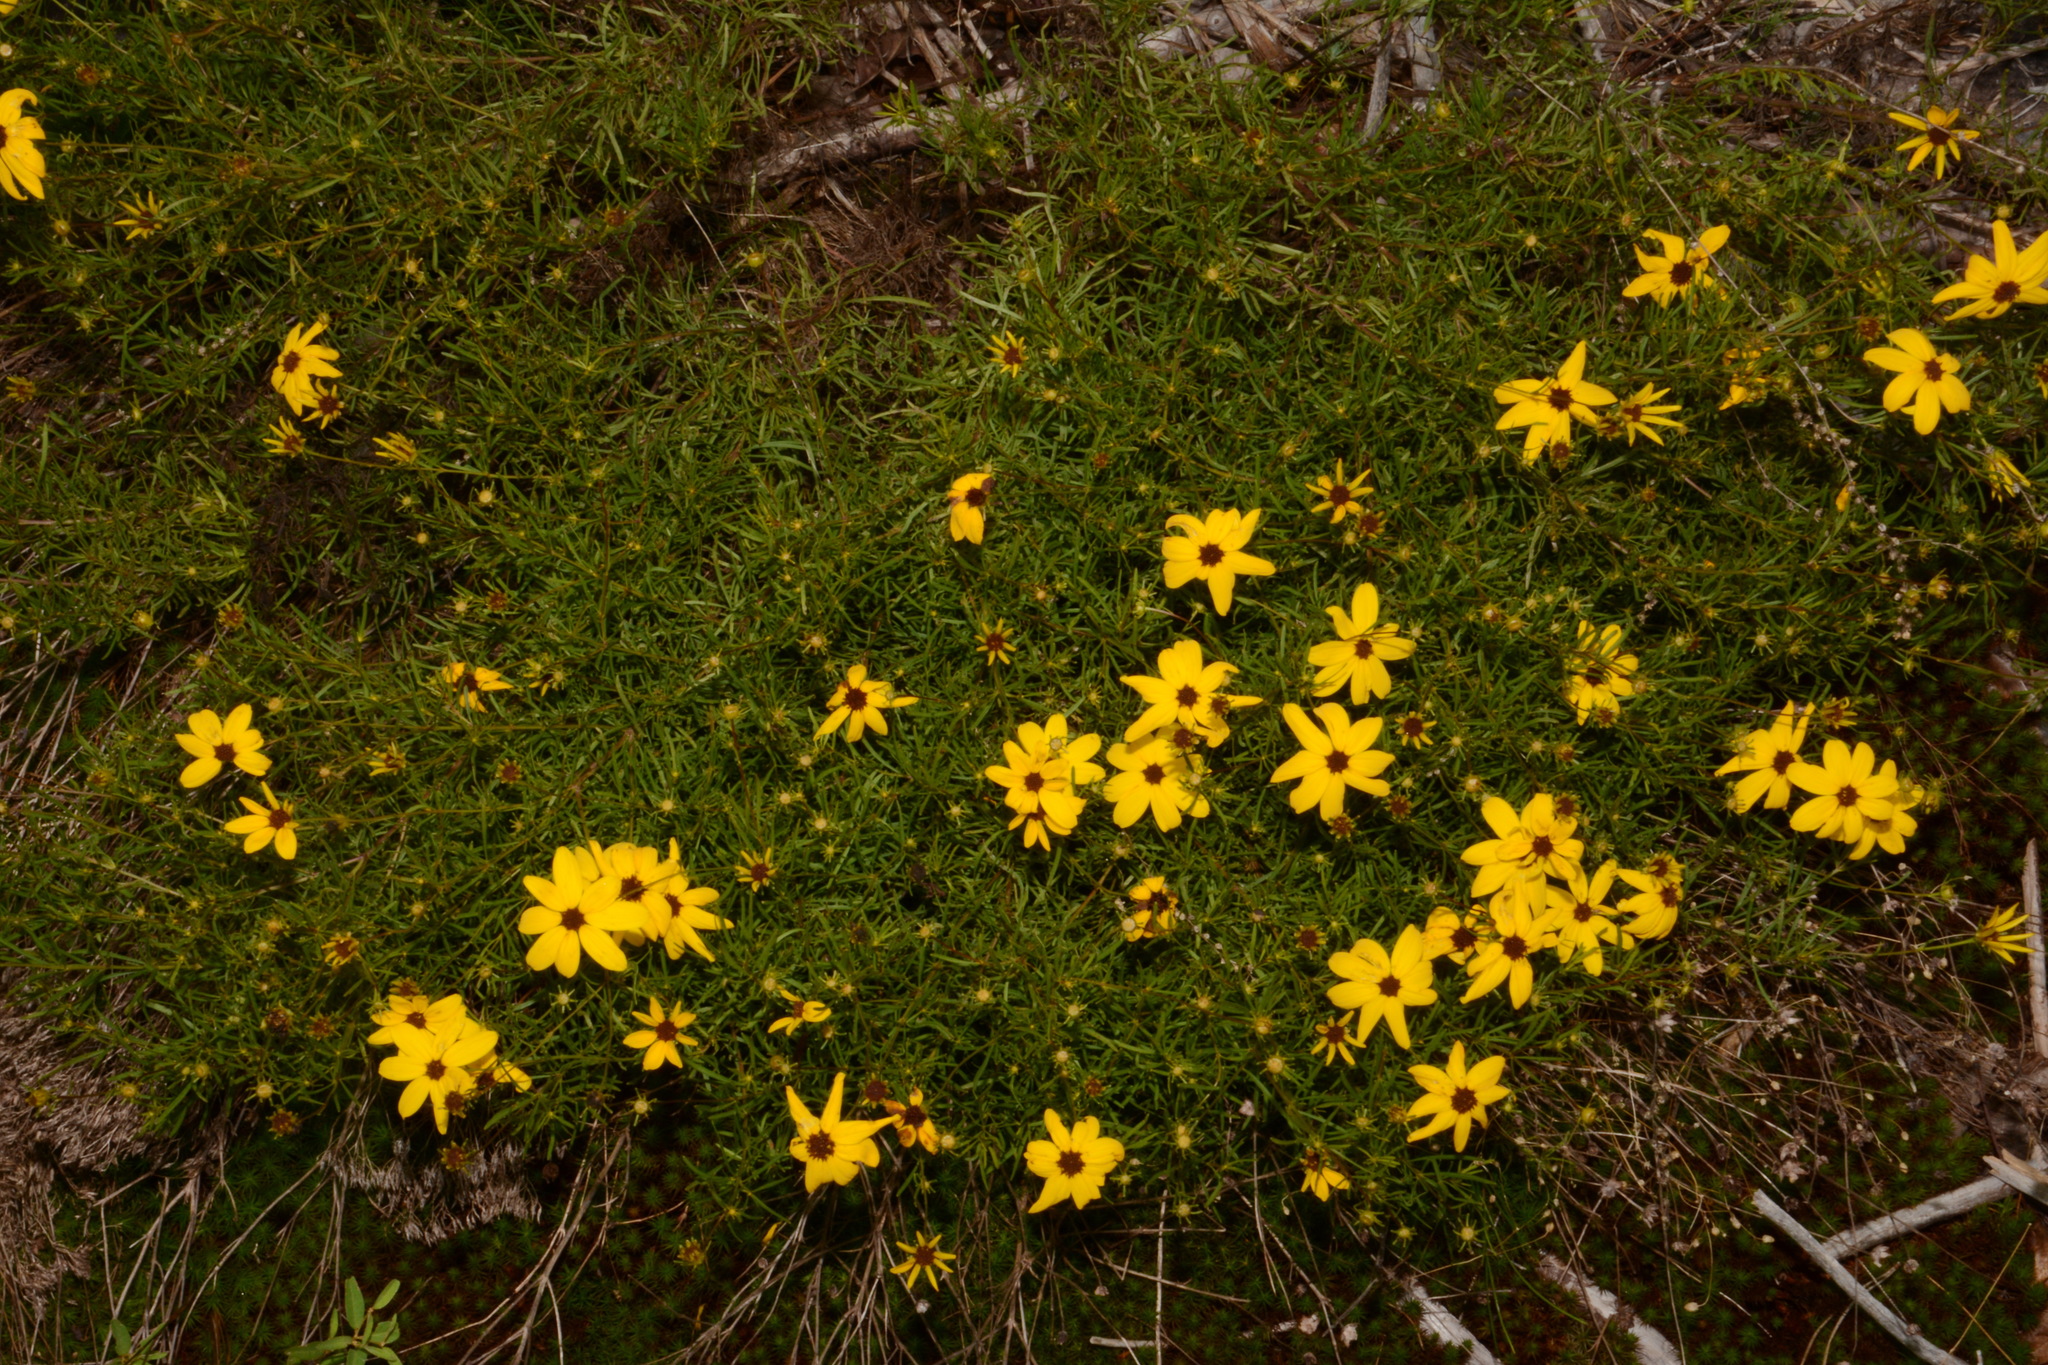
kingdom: Plantae
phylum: Tracheophyta
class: Magnoliopsida
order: Asterales
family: Asteraceae
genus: Coreopsis
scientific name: Coreopsis pulchra
